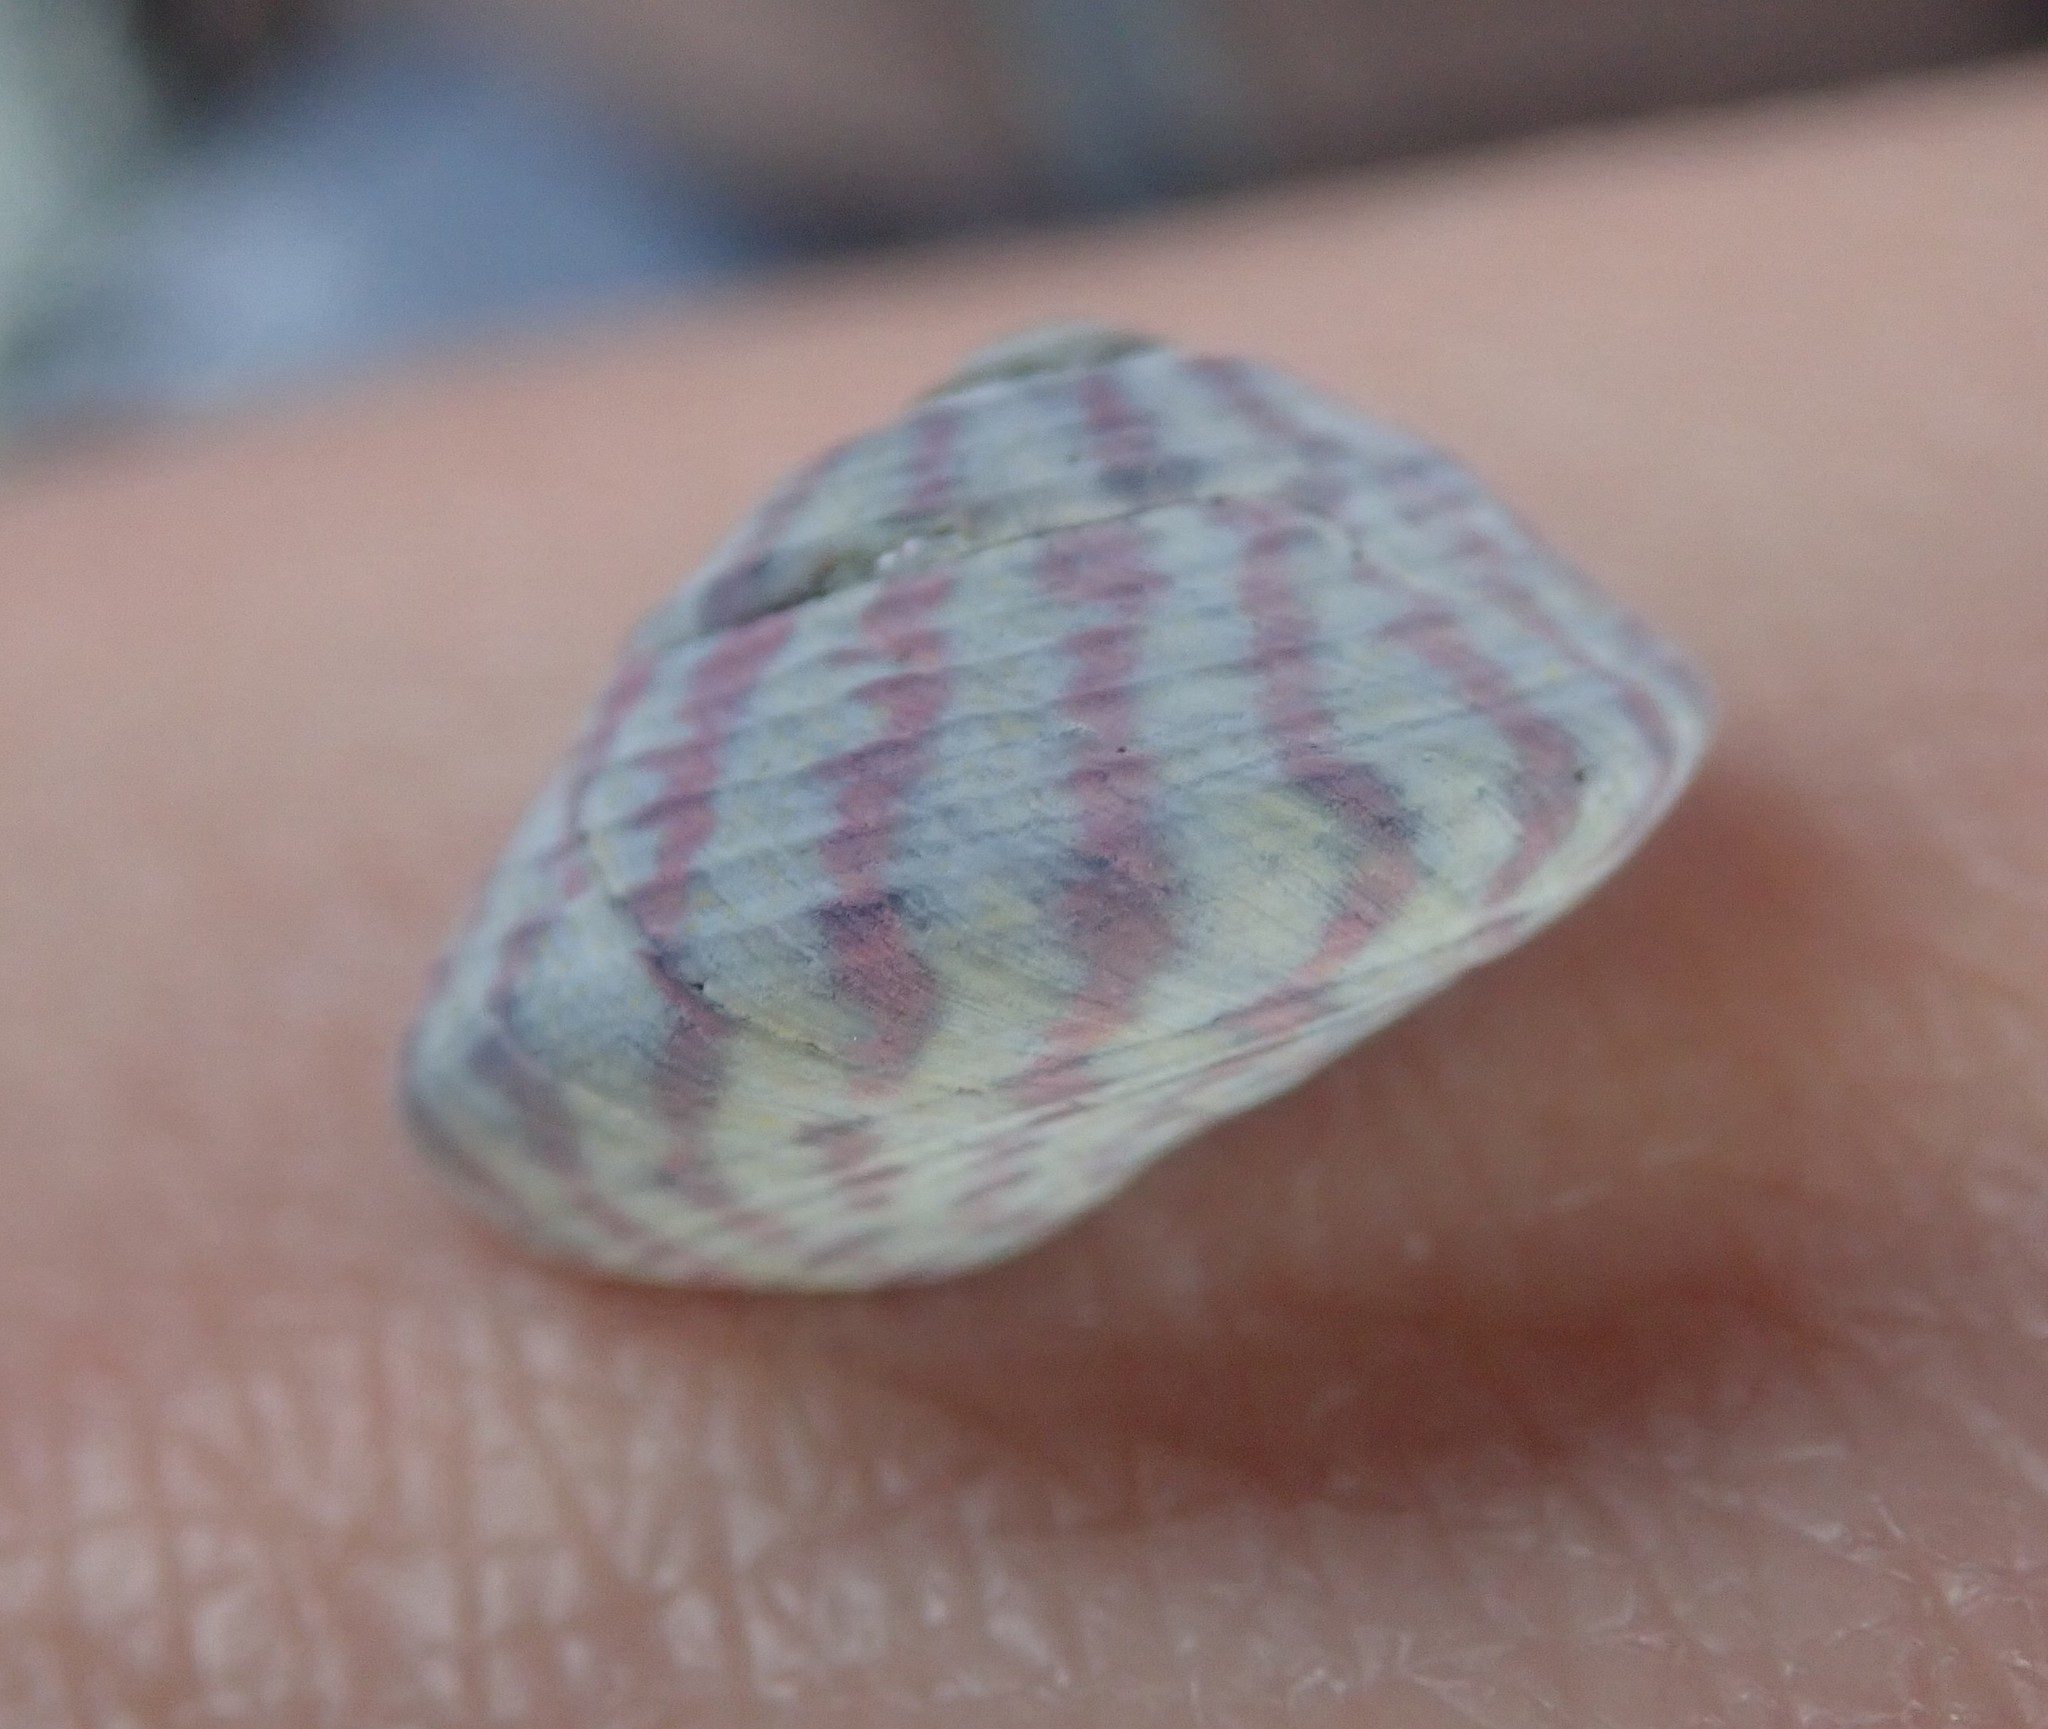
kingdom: Animalia
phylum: Mollusca
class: Gastropoda
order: Trochida
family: Trochidae
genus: Steromphala
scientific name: Steromphala umbilicalis
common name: Flat top shell
